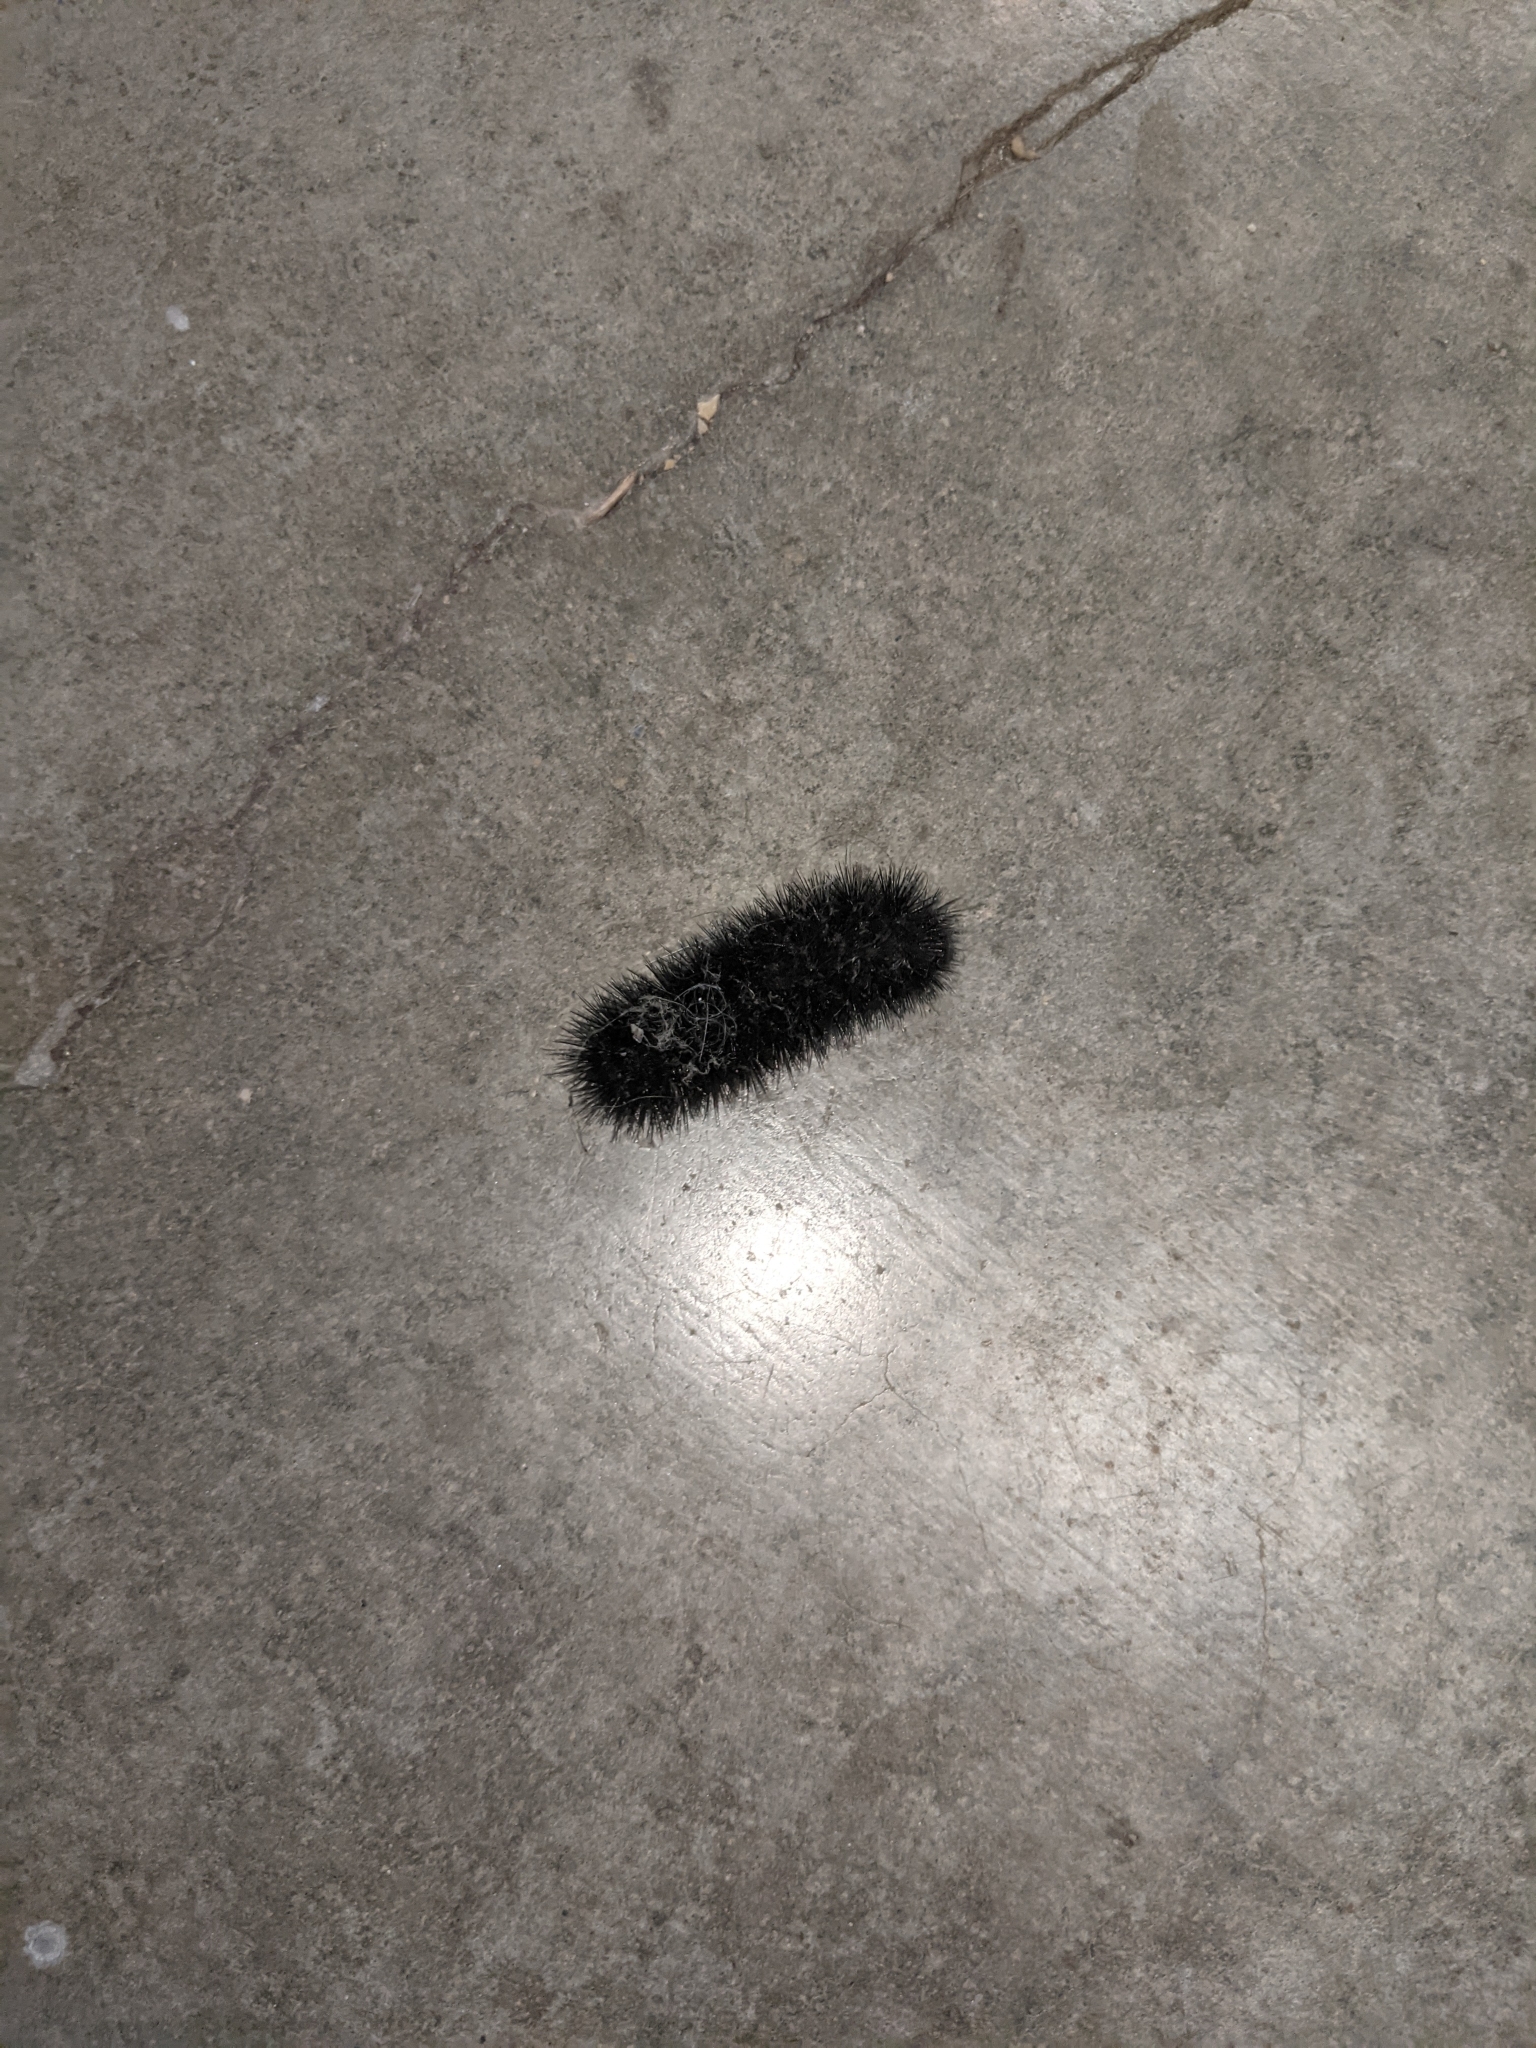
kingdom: Animalia
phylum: Arthropoda
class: Insecta
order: Lepidoptera
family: Erebidae
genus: Hypercompe
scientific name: Hypercompe scribonia
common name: Giant leopard moth
